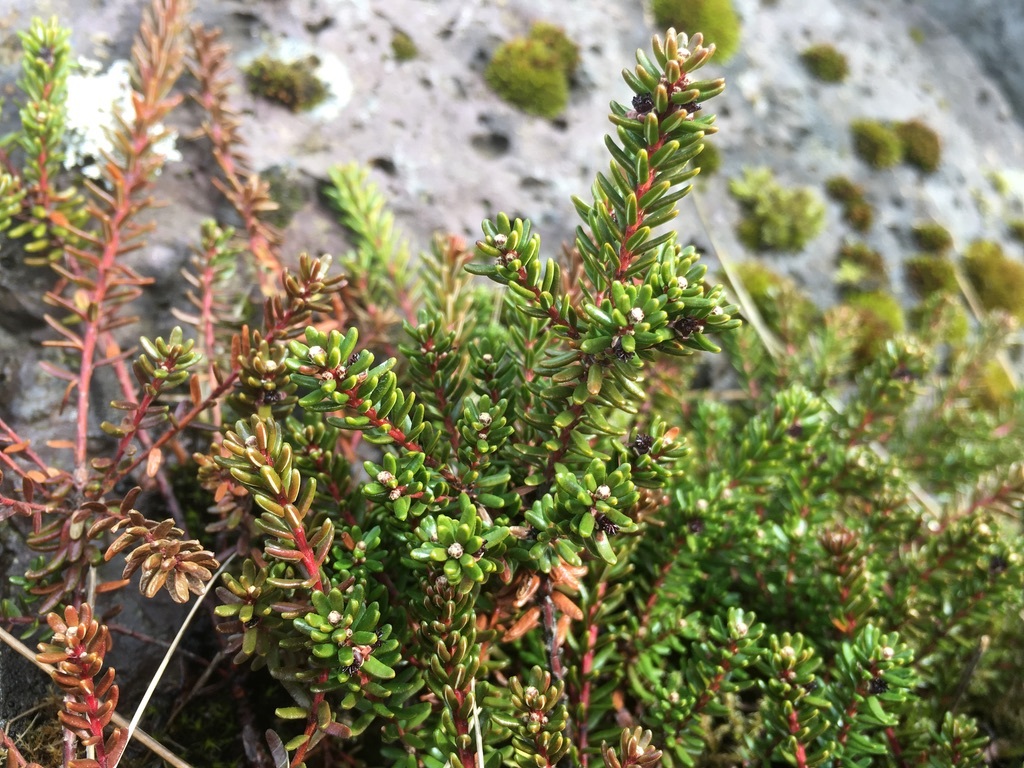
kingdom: Plantae
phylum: Tracheophyta
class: Magnoliopsida
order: Ericales
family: Ericaceae
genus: Empetrum
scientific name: Empetrum nigrum
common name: Black crowberry
